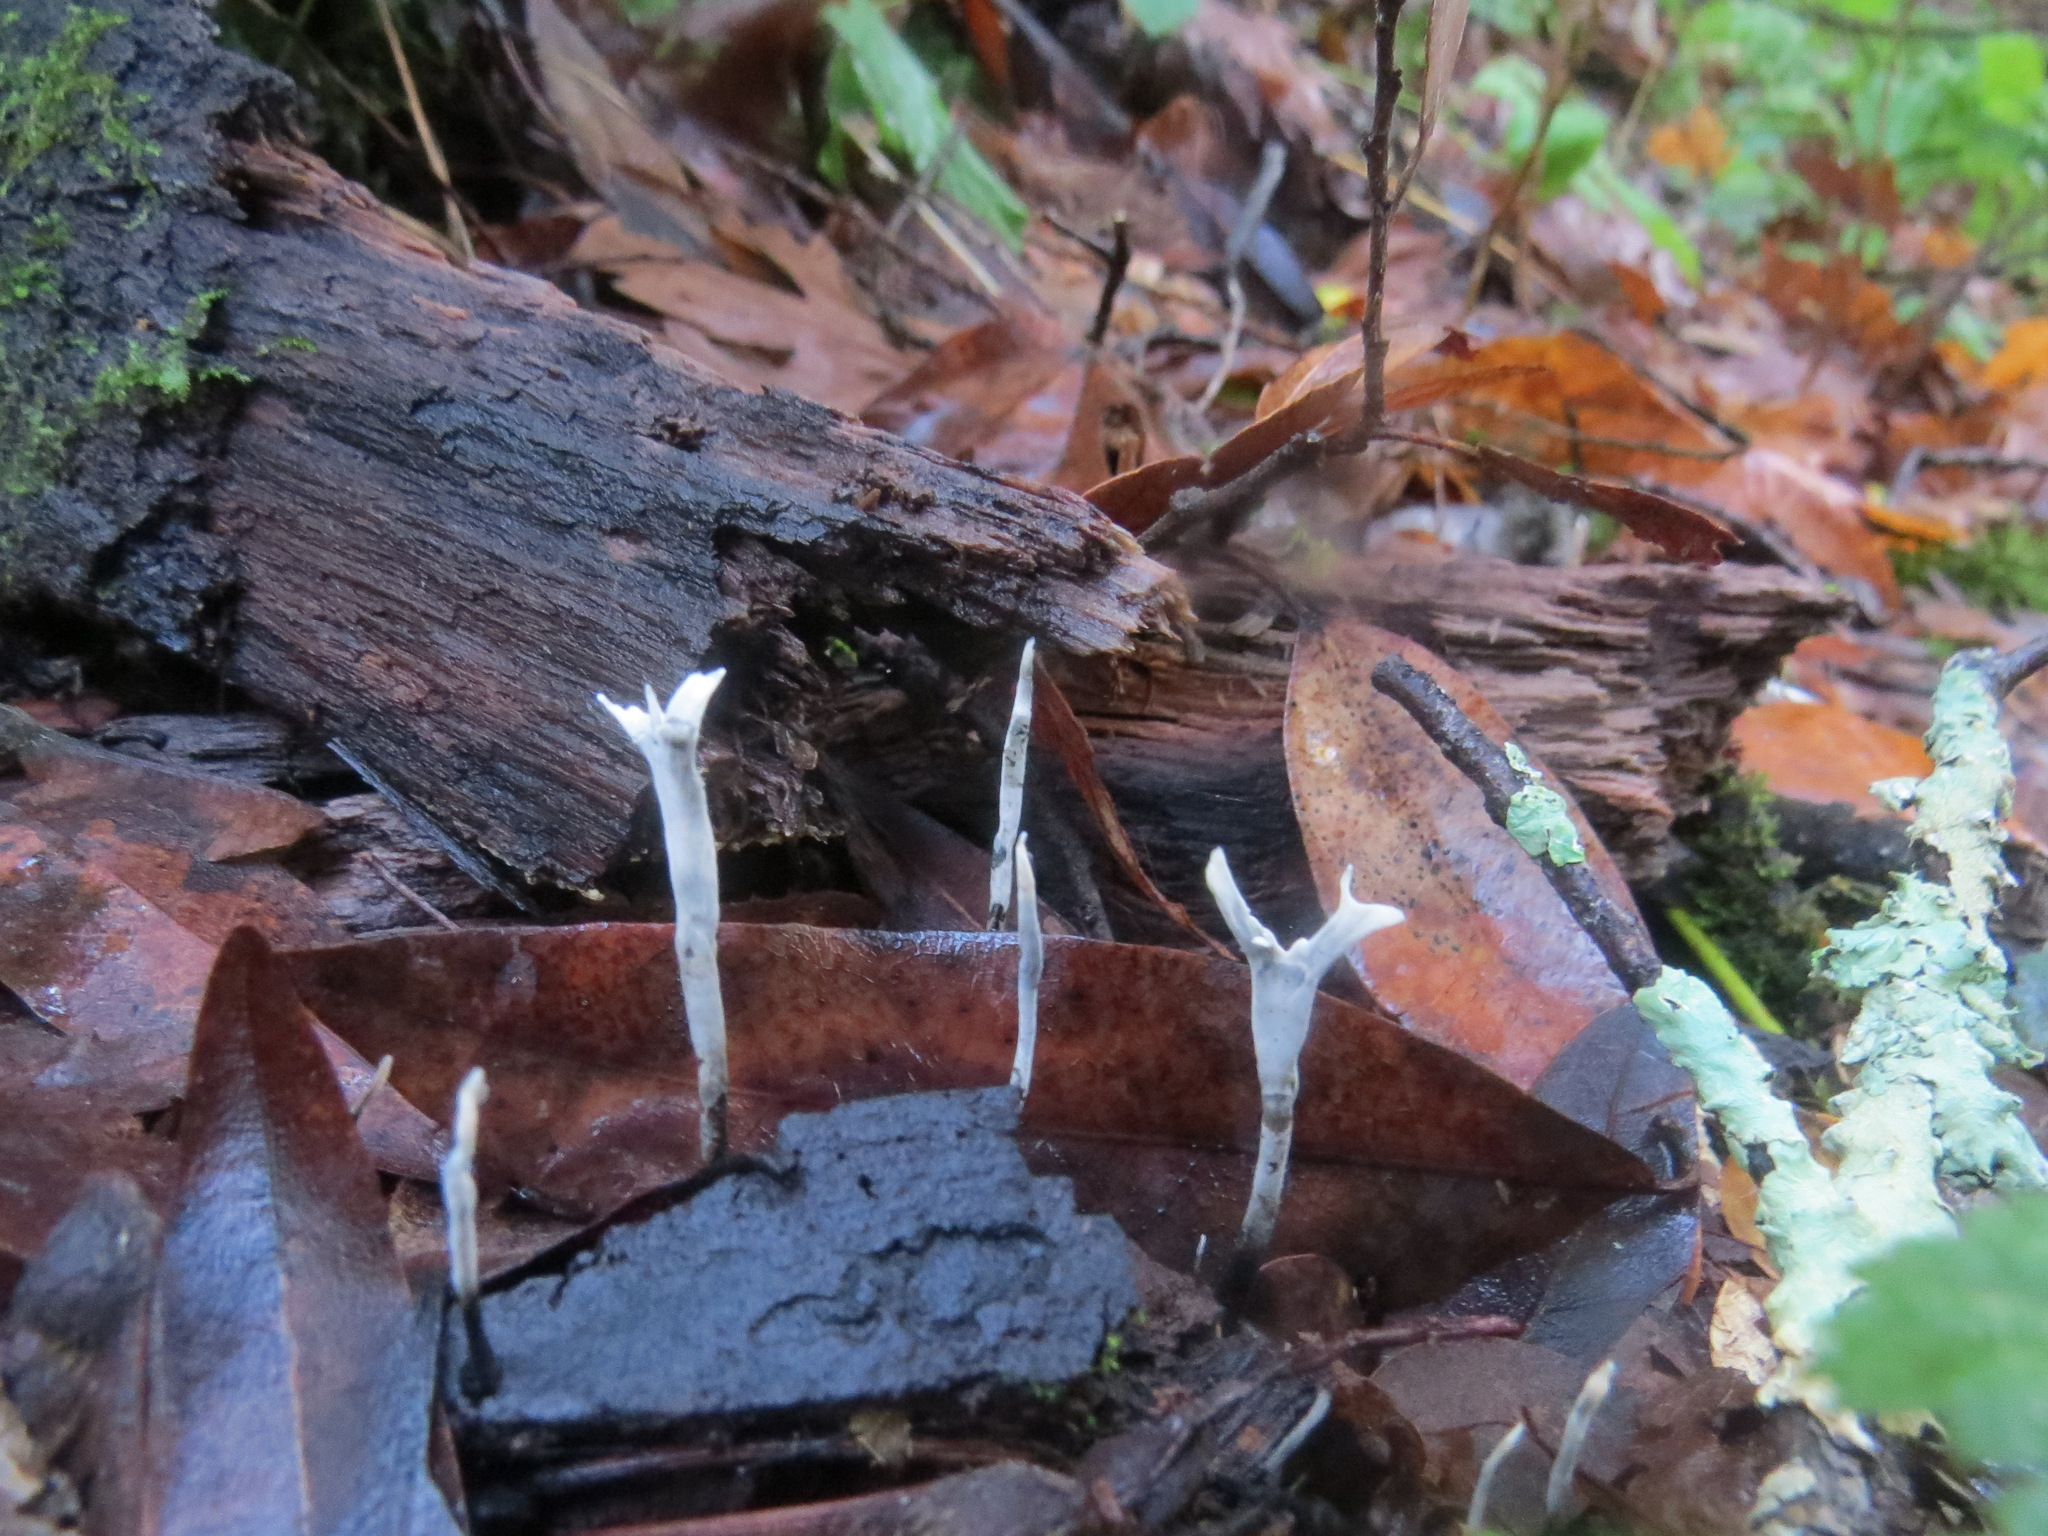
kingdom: Fungi
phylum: Ascomycota
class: Sordariomycetes
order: Xylariales
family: Xylariaceae
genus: Xylaria
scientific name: Xylaria hypoxylon
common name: Candle-snuff fungus
